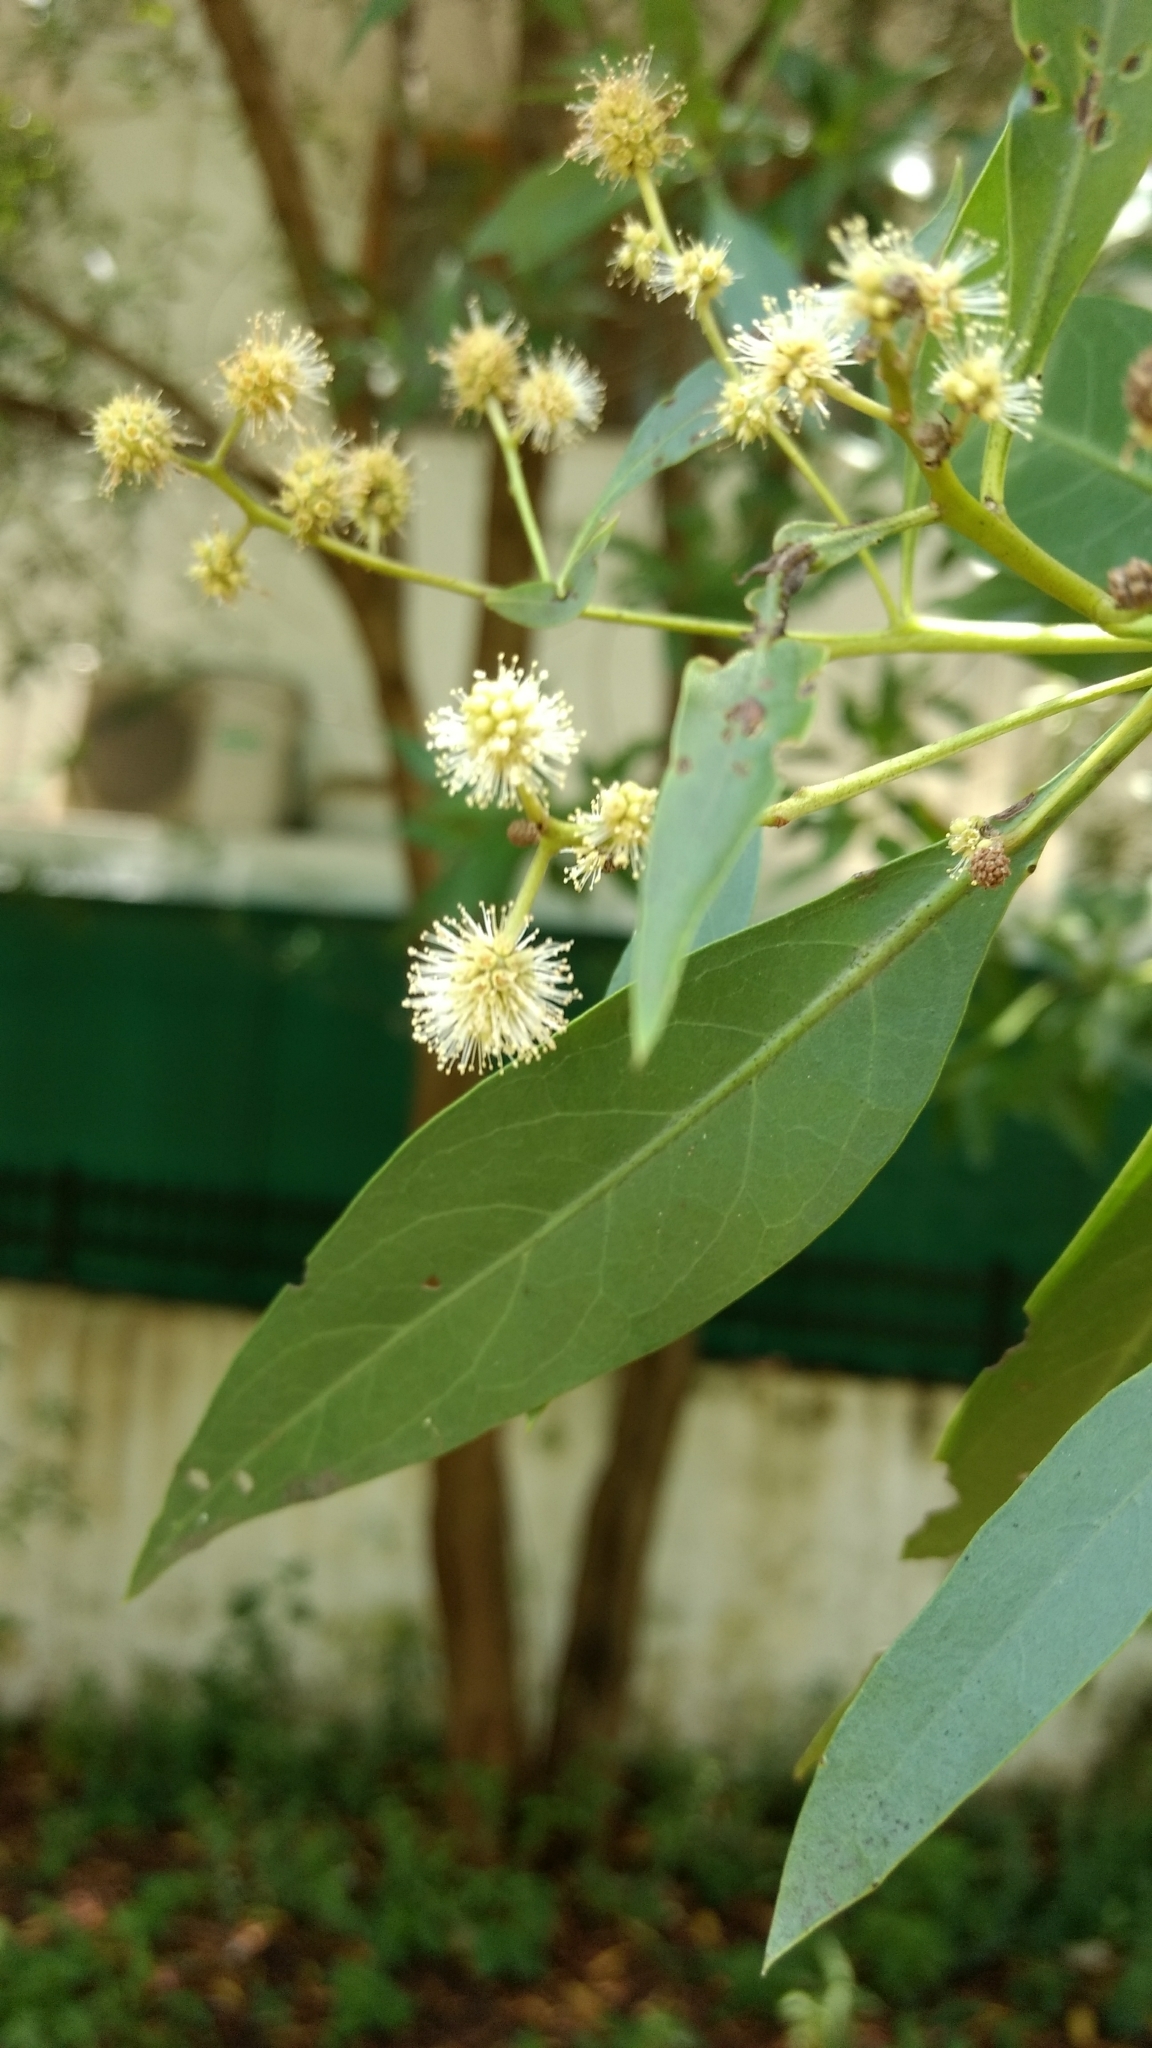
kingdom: Plantae
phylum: Tracheophyta
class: Magnoliopsida
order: Myrtales
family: Combretaceae
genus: Conocarpus
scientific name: Conocarpus lancifolius
